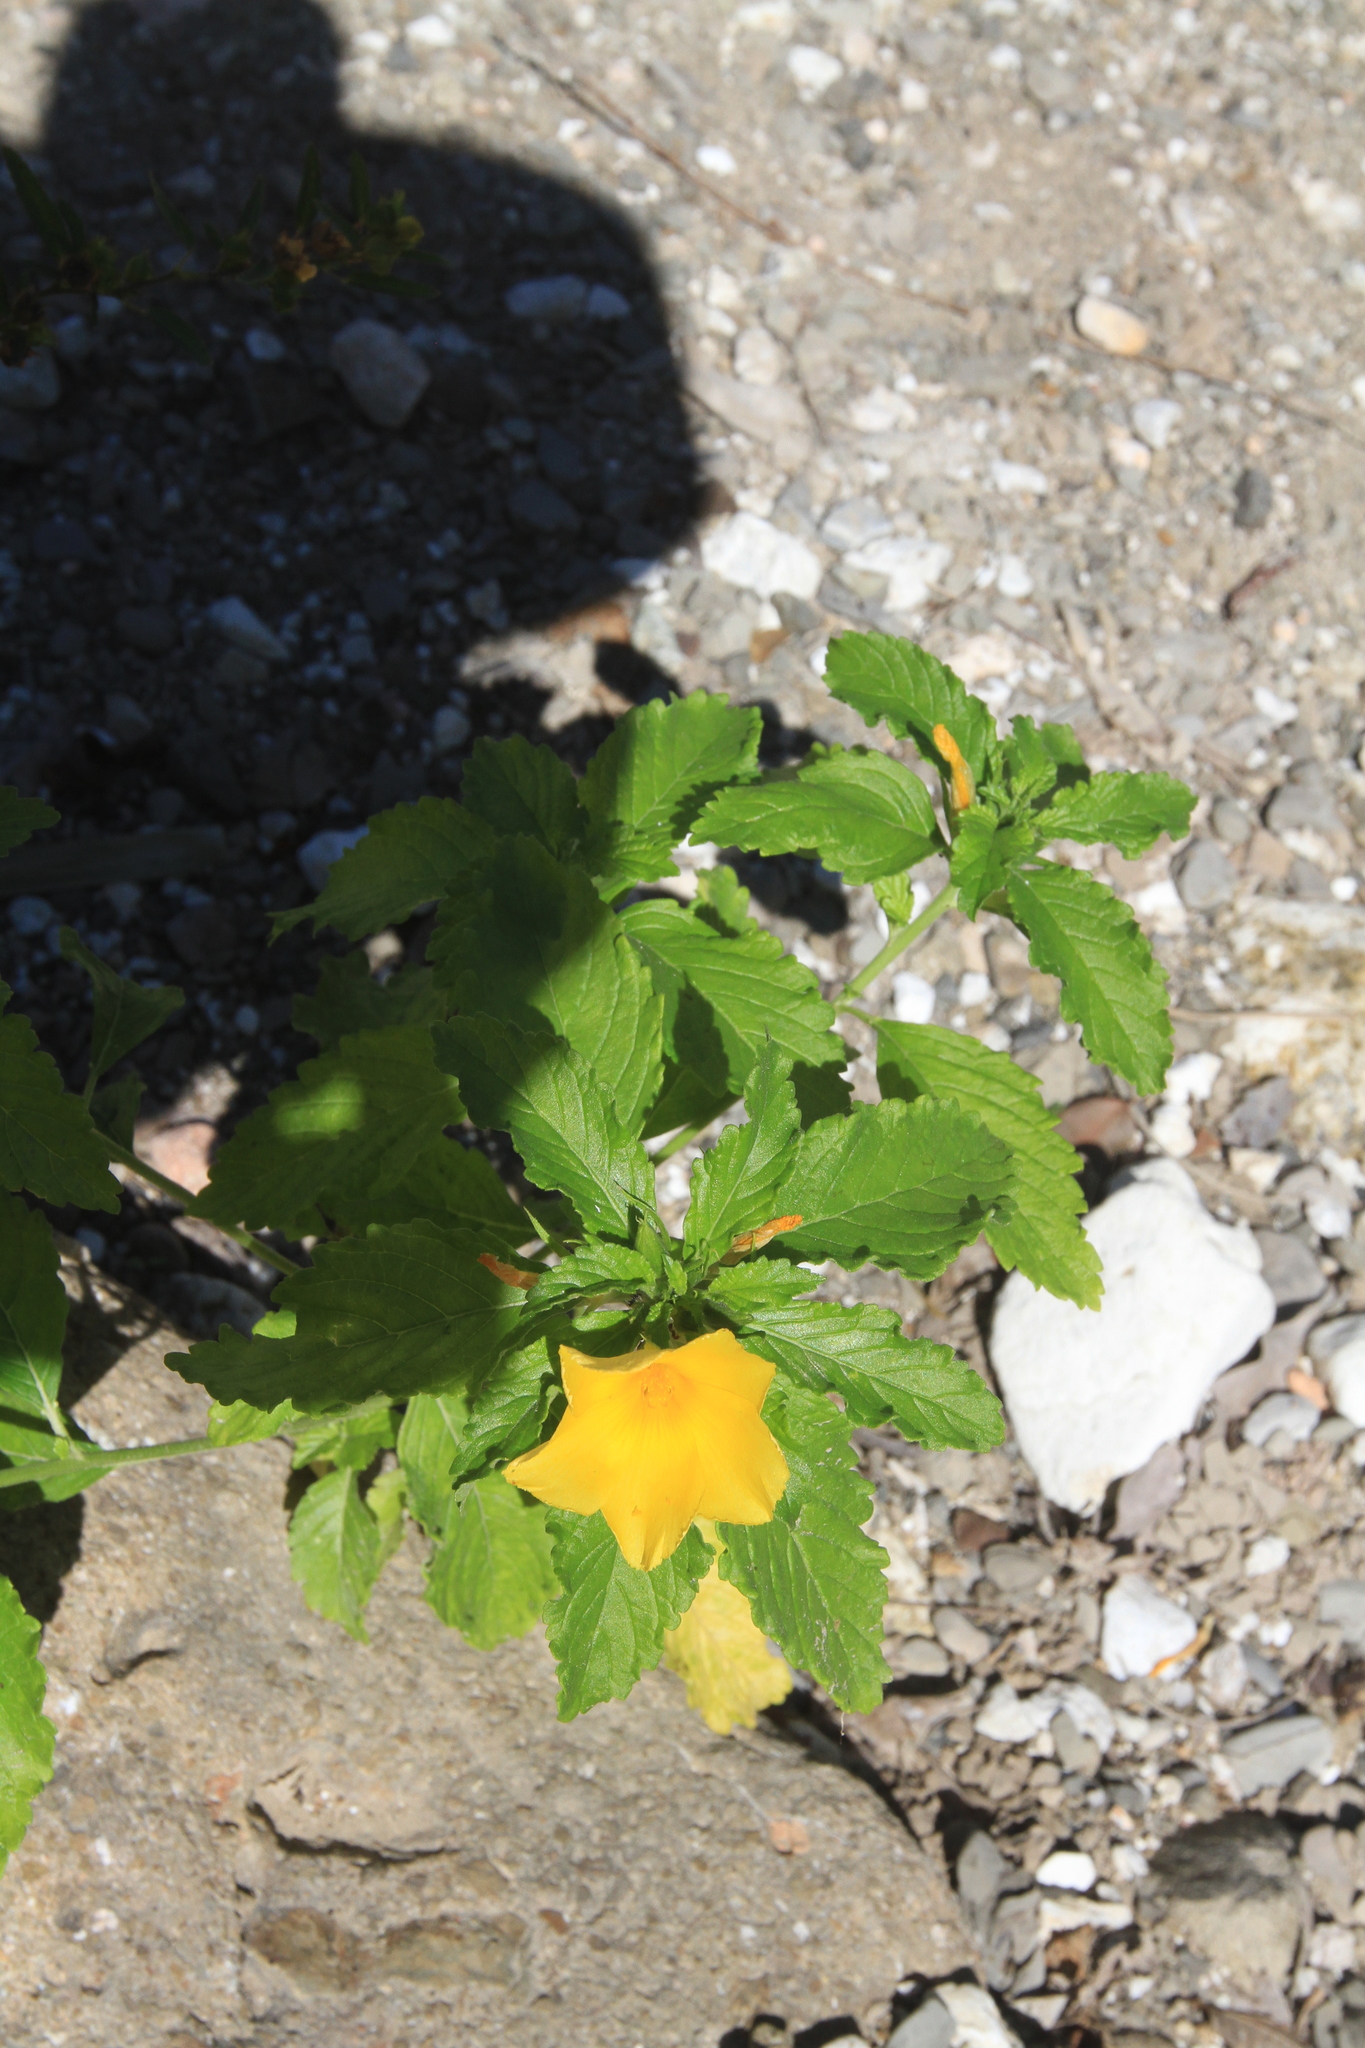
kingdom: Plantae
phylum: Tracheophyta
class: Magnoliopsida
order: Malpighiales
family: Turneraceae
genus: Turnera
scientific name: Turnera ulmifolia
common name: Ramgoat dashalong
